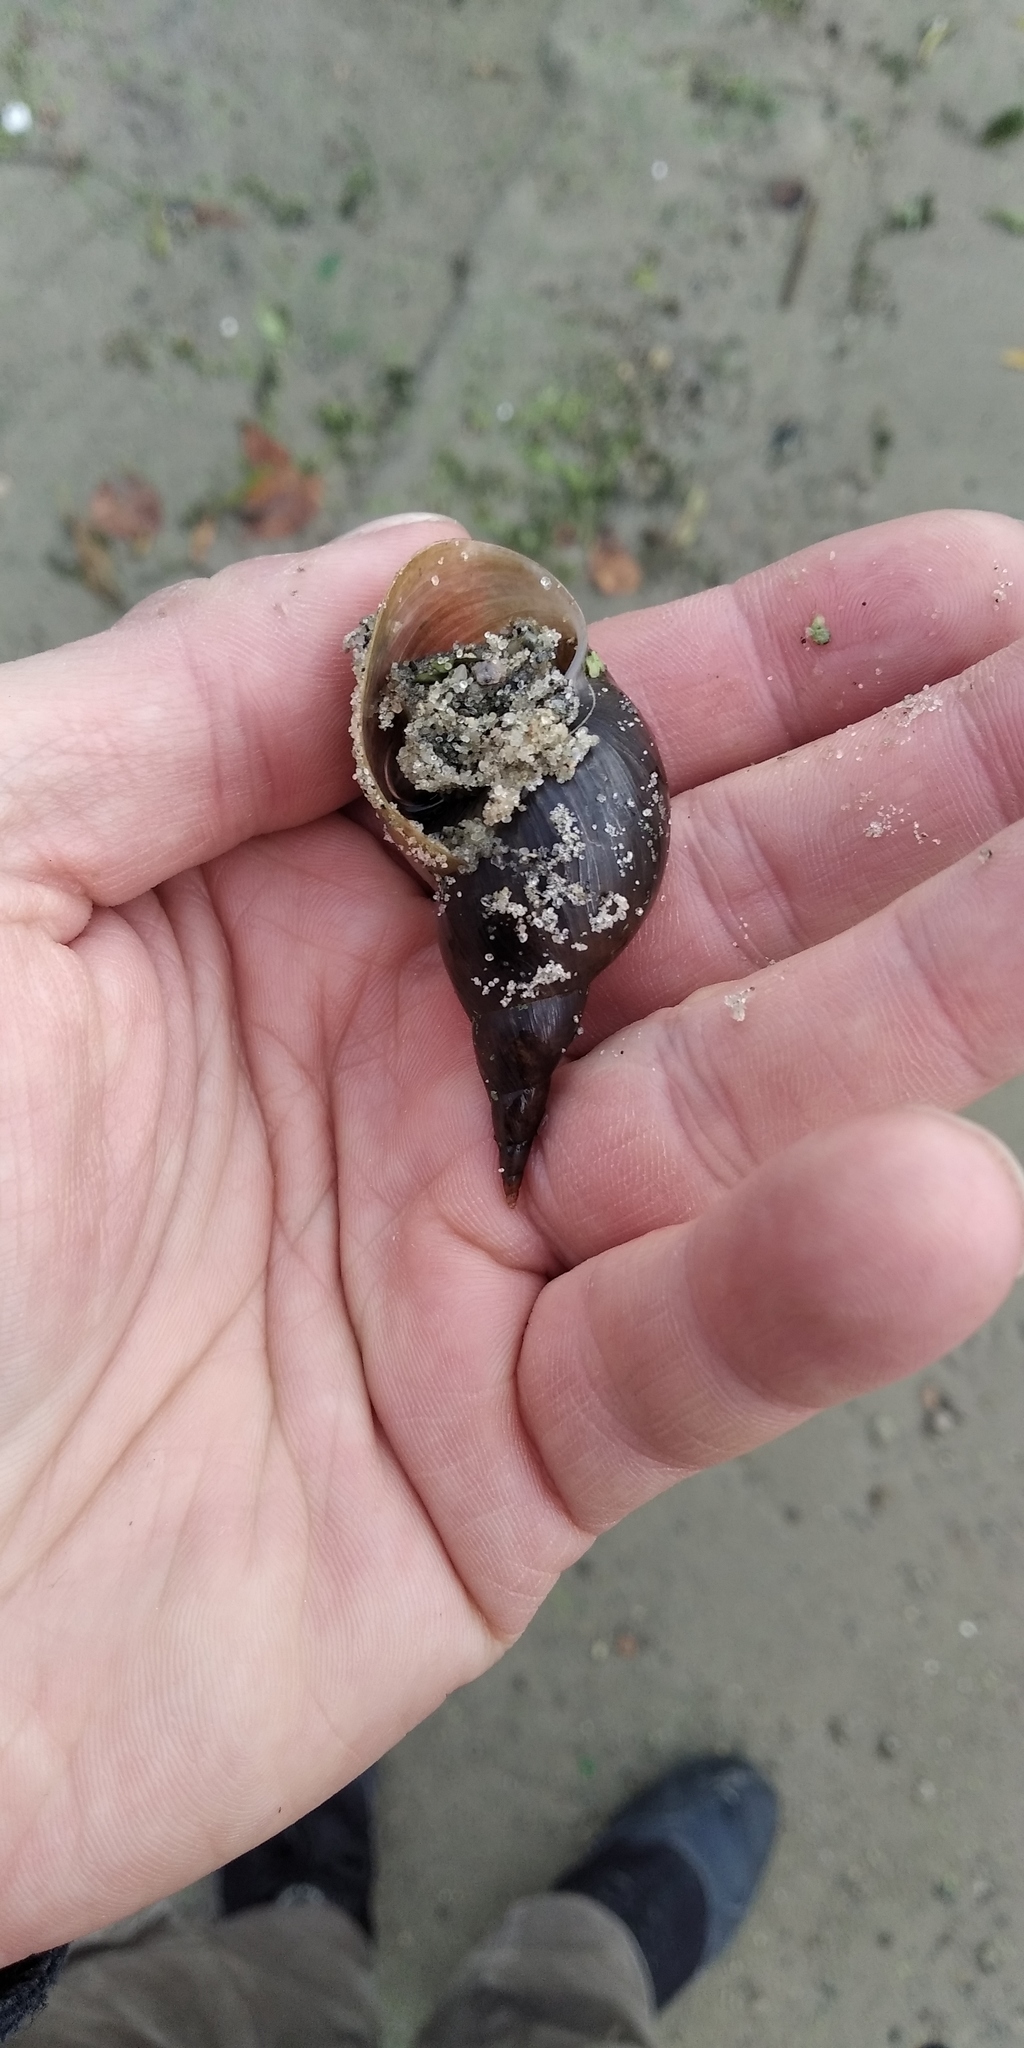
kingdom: Animalia
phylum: Mollusca
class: Gastropoda
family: Lymnaeidae
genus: Lymnaea
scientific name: Lymnaea stagnalis
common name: Great pond snail
